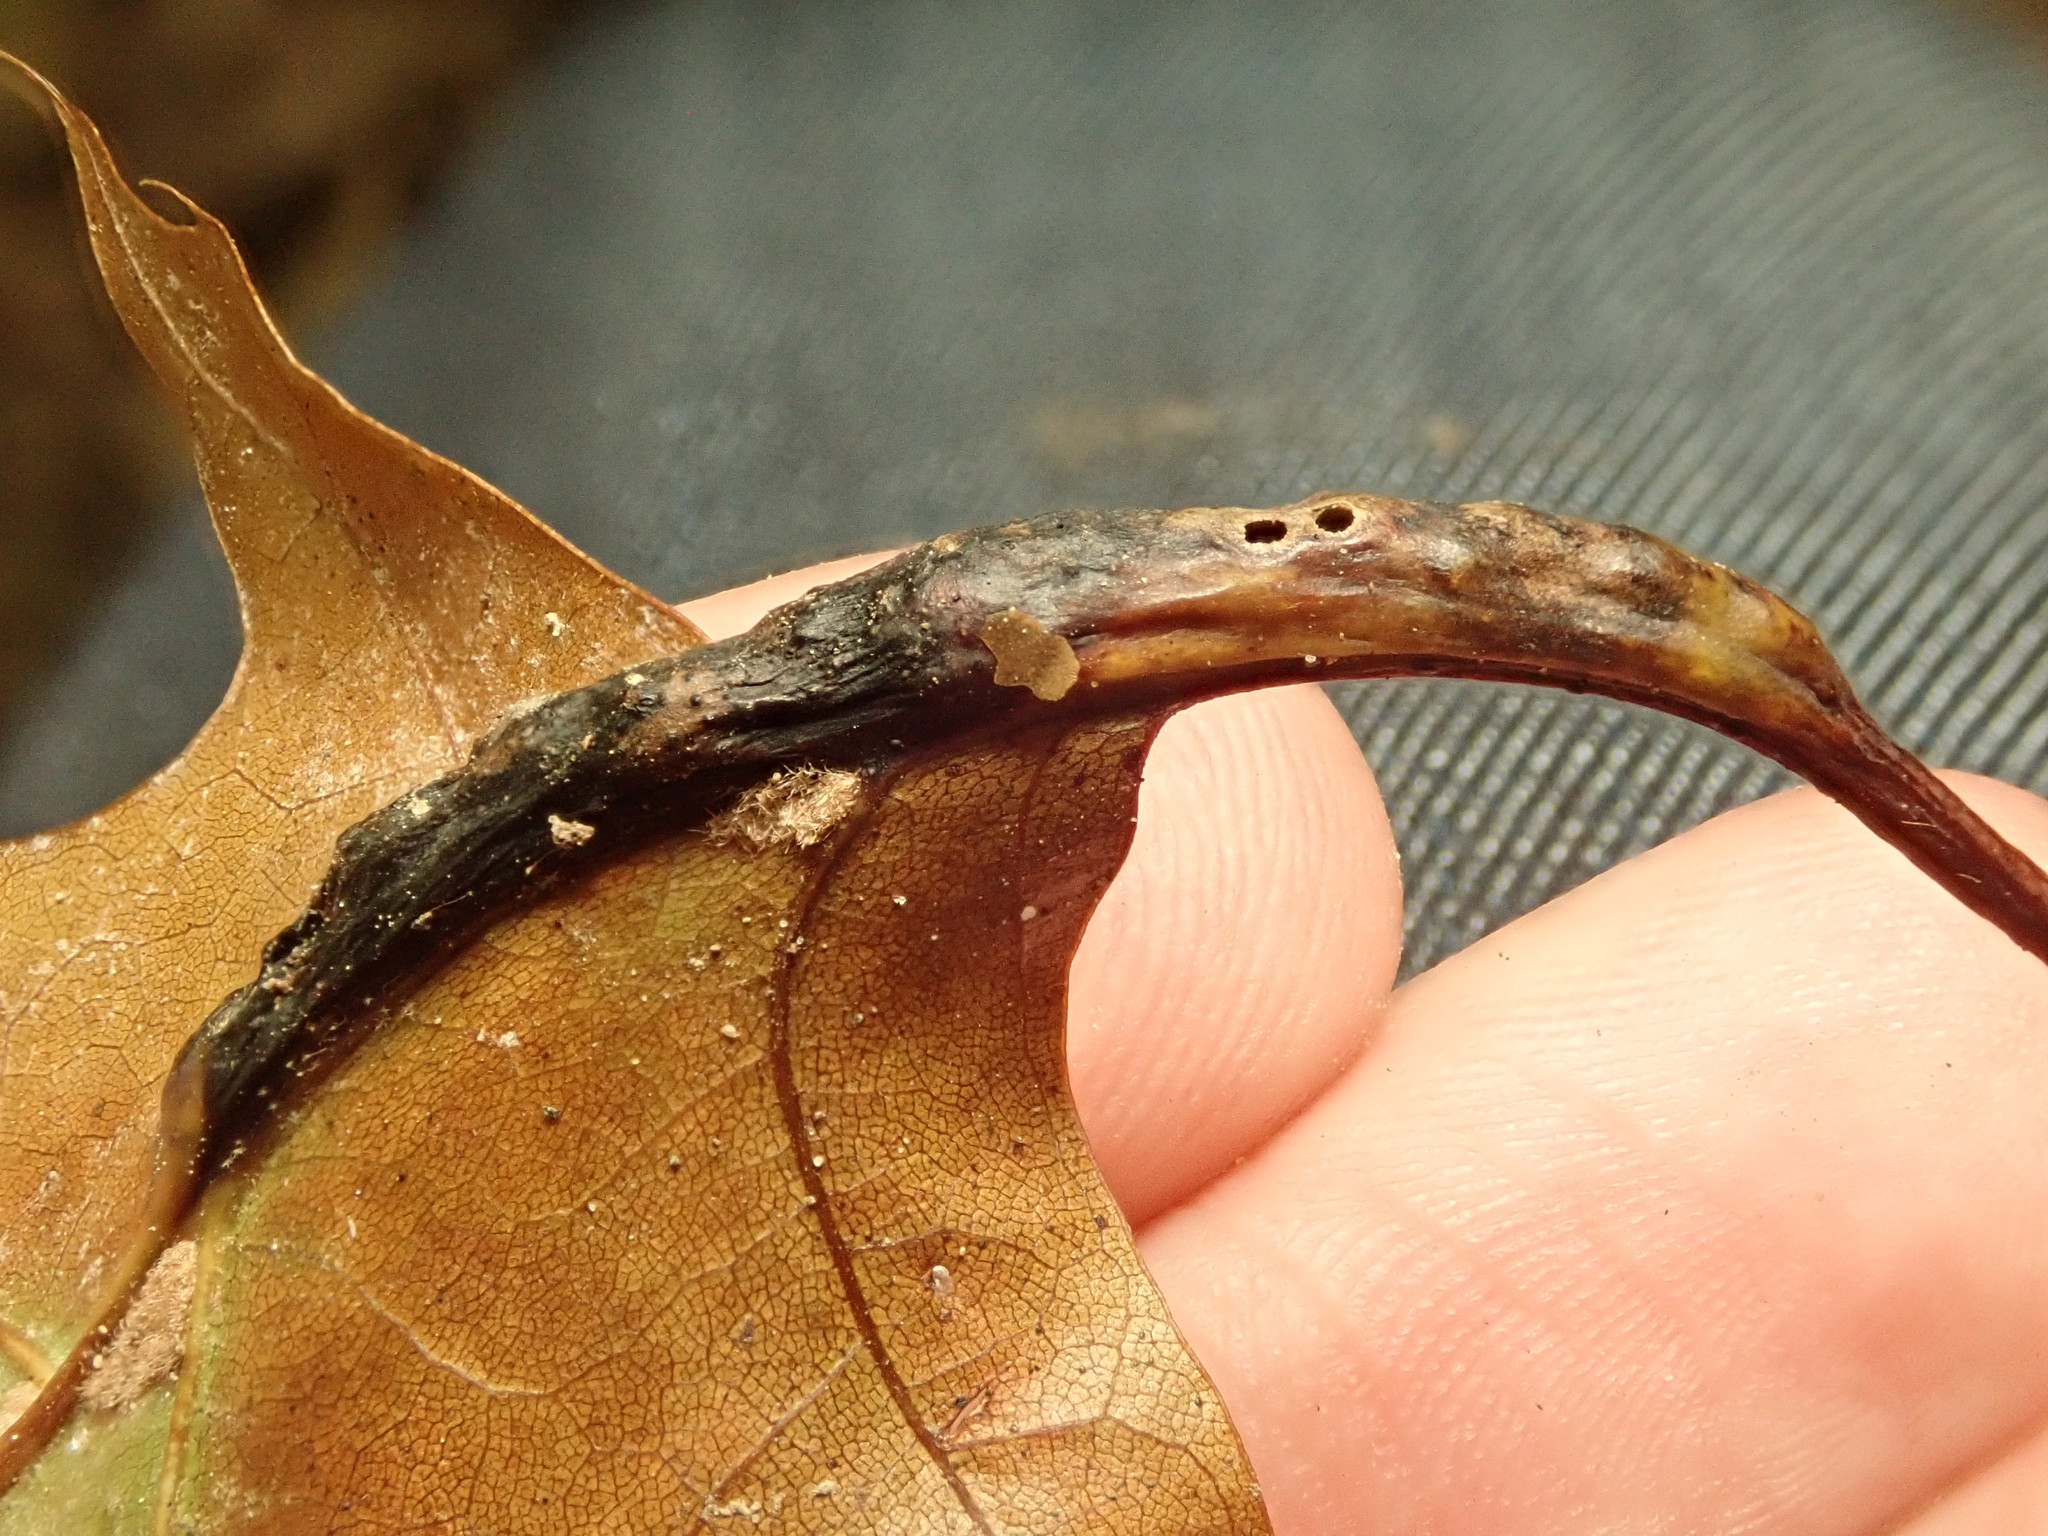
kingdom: Animalia
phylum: Arthropoda
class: Insecta
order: Hymenoptera
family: Cynipidae
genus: Melikaiella
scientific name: Melikaiella tumifica
